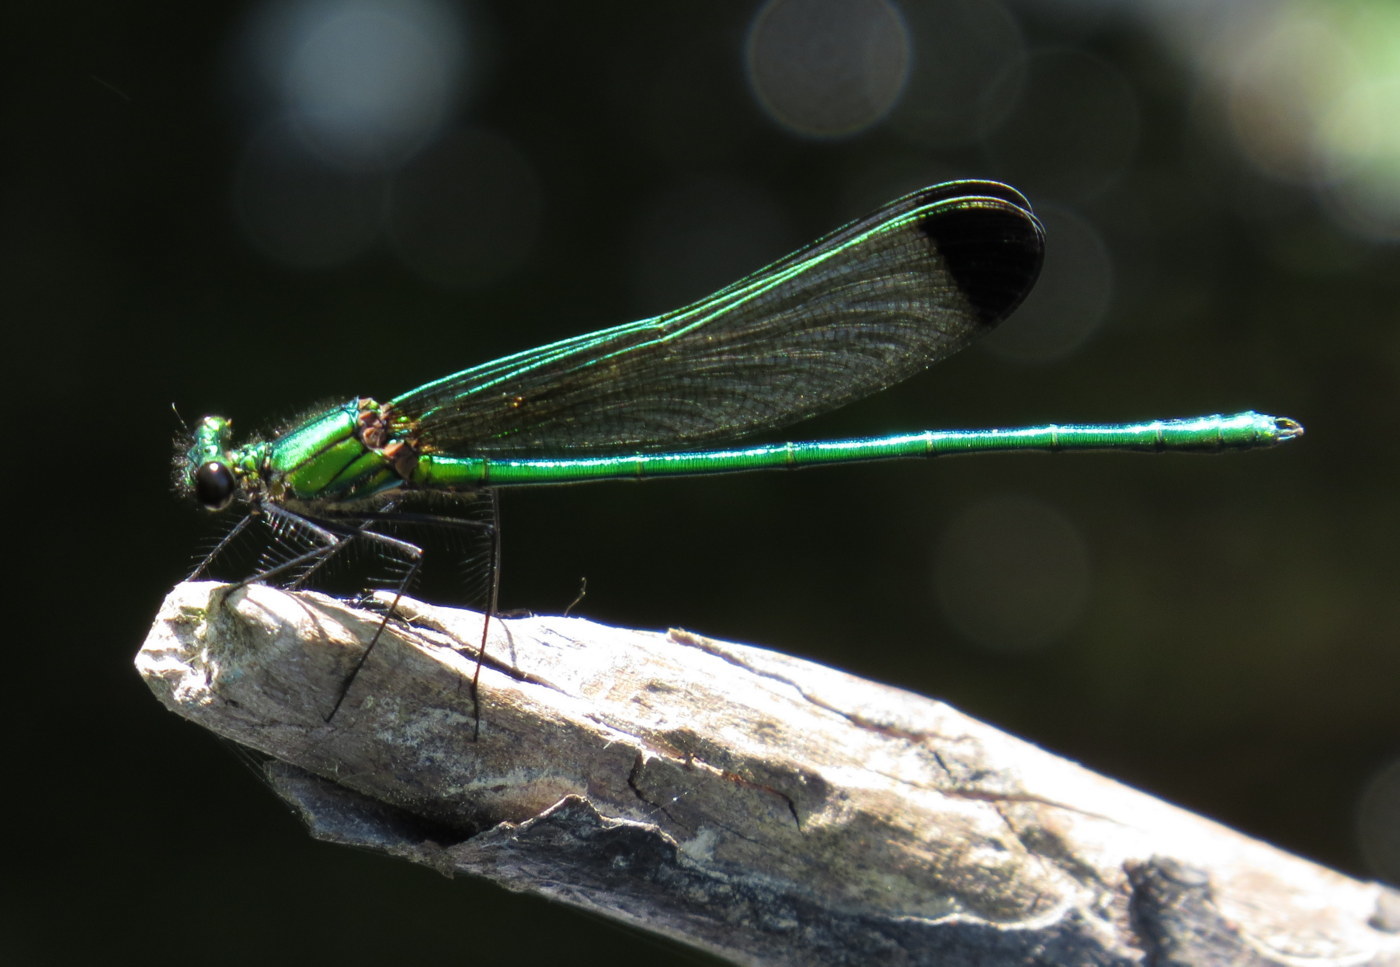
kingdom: Animalia
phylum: Arthropoda
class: Insecta
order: Odonata
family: Calopterygidae
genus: Calopteryx
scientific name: Calopteryx dimidiata
